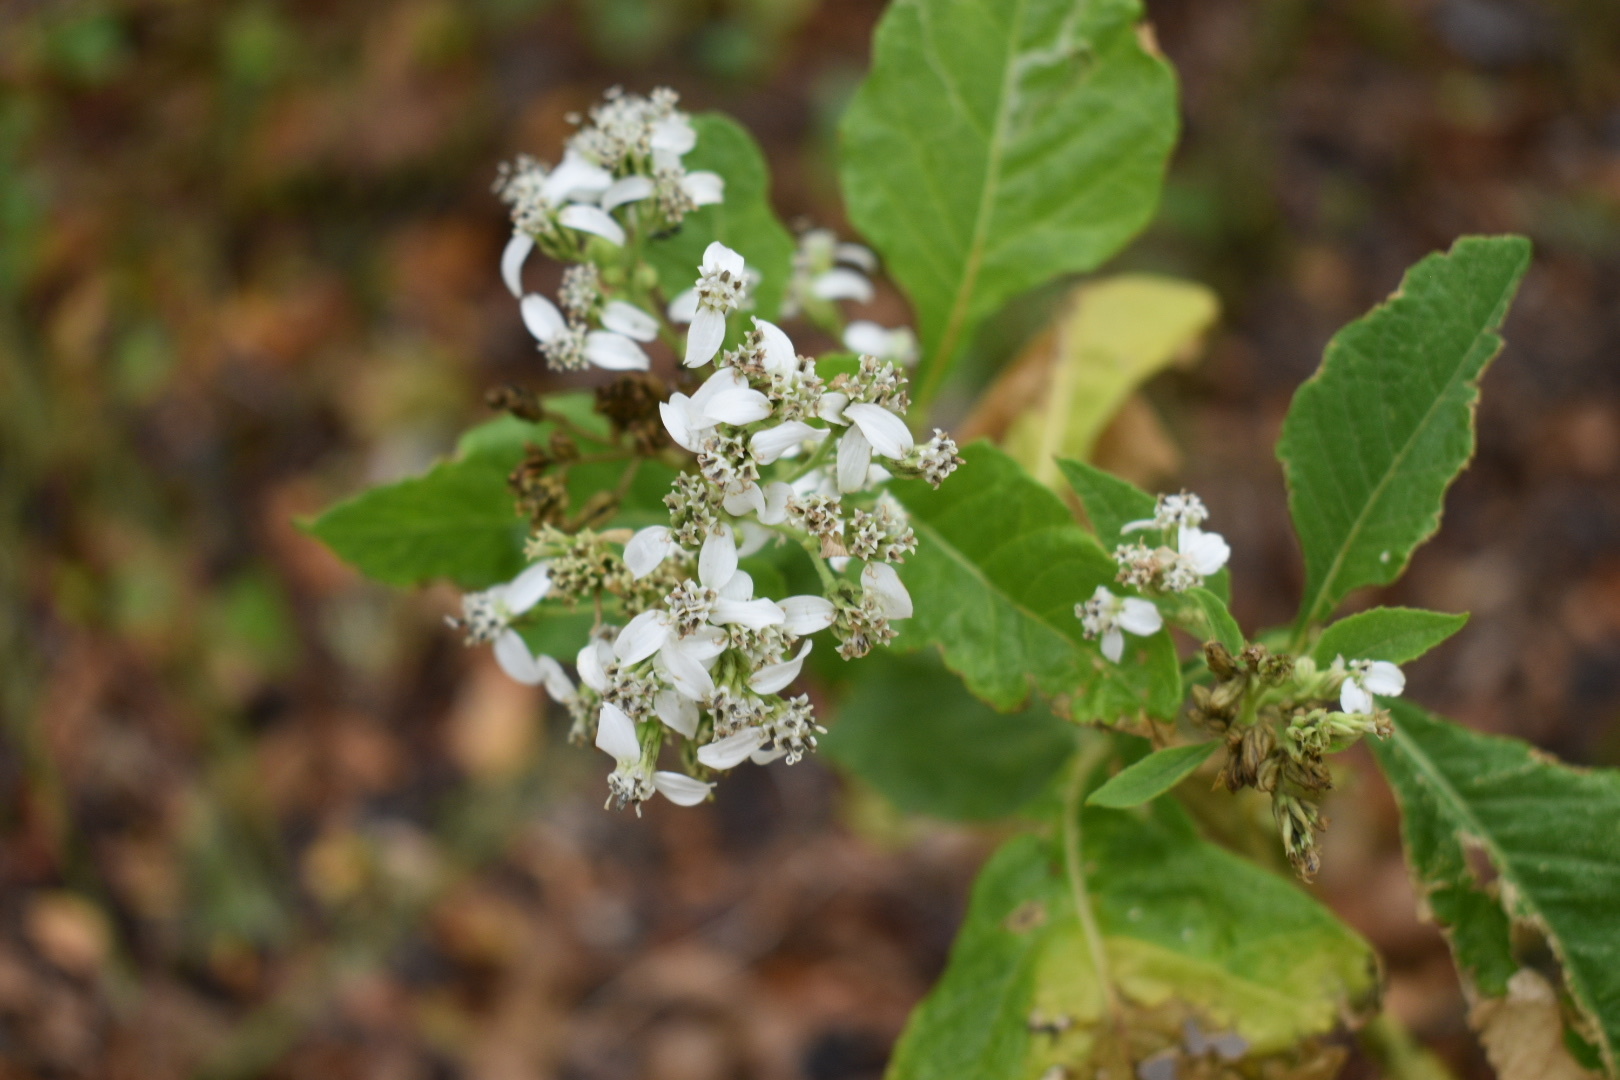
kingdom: Plantae
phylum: Tracheophyta
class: Magnoliopsida
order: Asterales
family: Asteraceae
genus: Verbesina
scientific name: Verbesina virginica
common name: Frostweed
